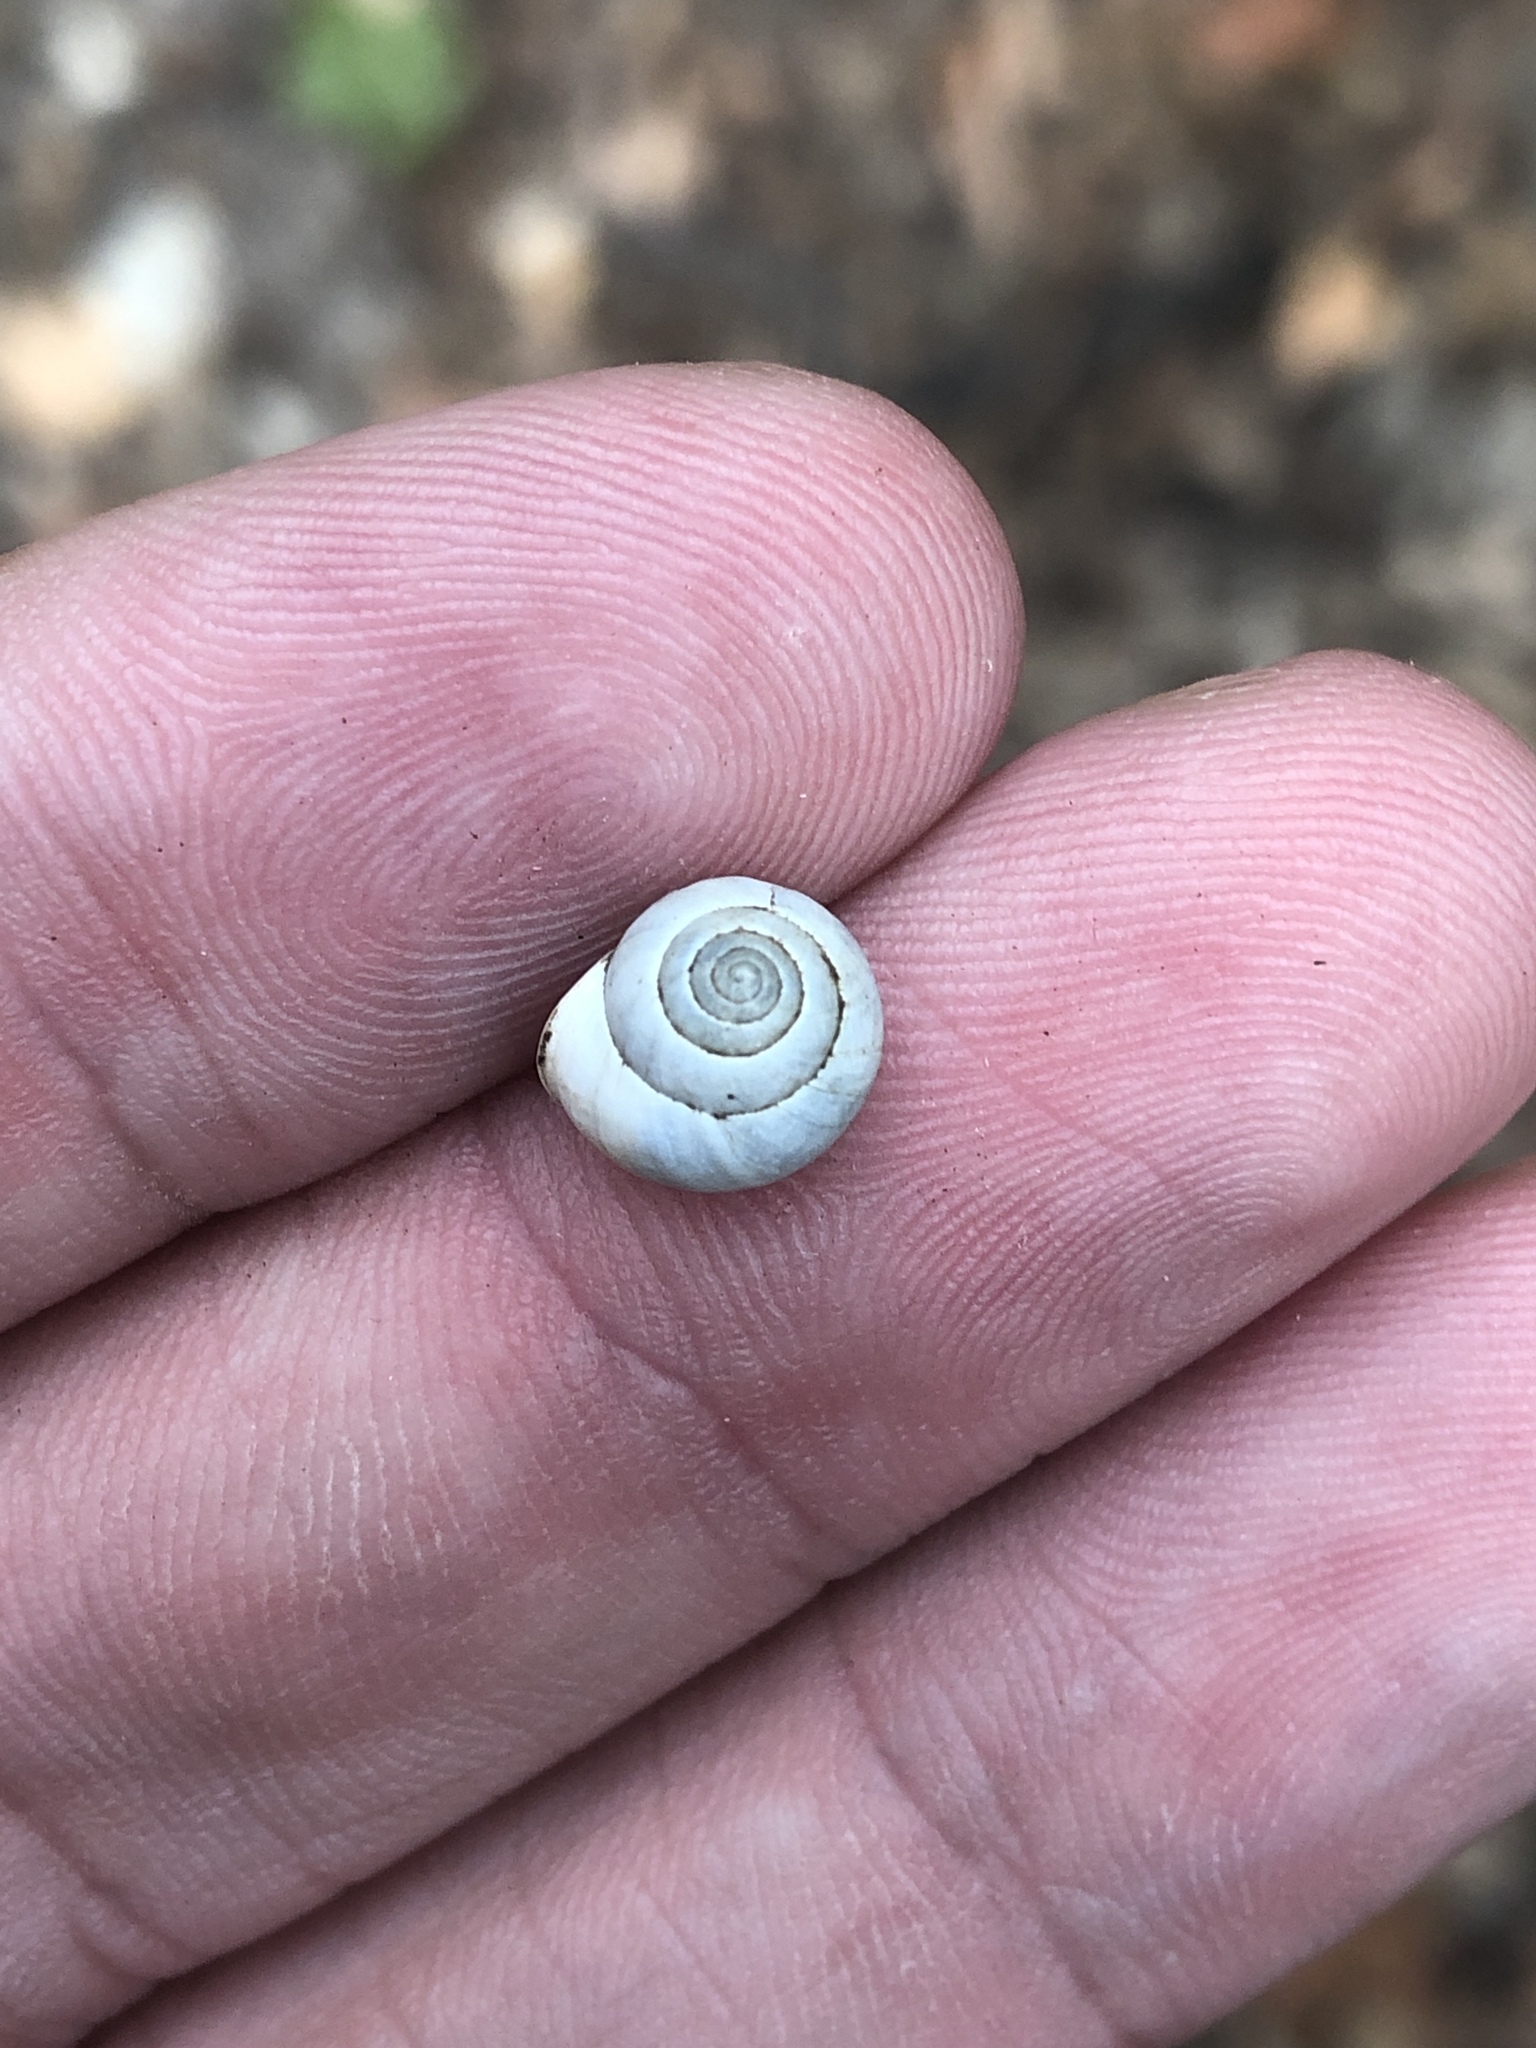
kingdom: Animalia
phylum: Mollusca
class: Gastropoda
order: Cycloneritida
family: Helicinidae
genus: Helicina
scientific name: Helicina orbiculata
